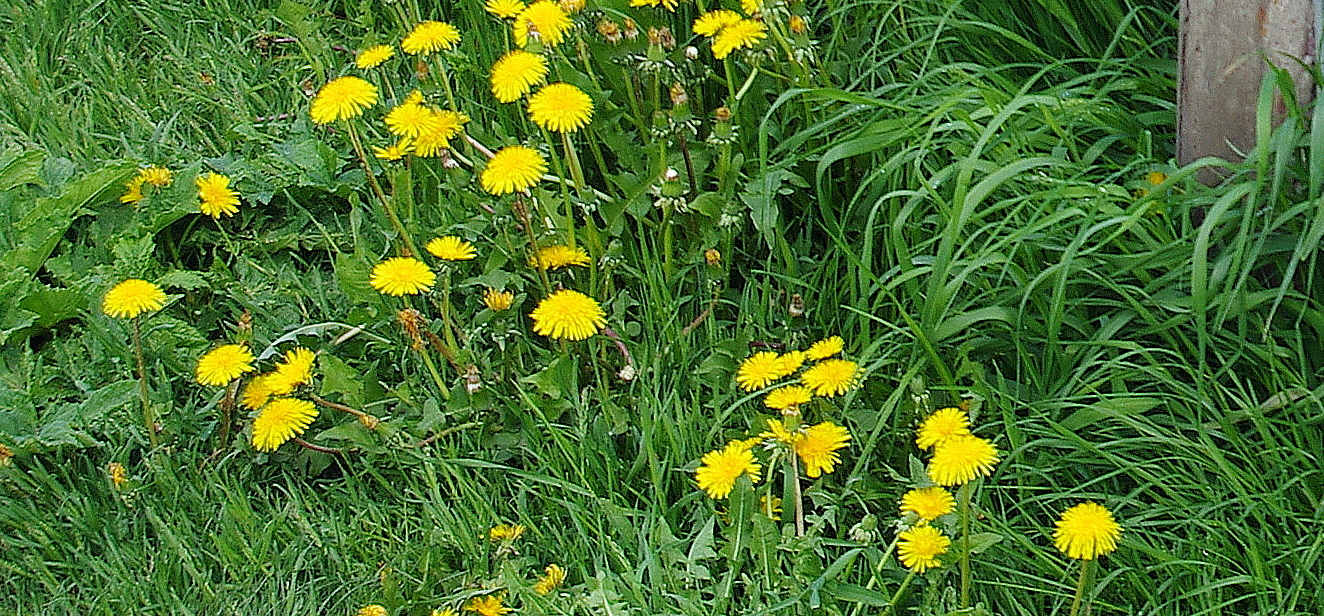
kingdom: Plantae
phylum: Tracheophyta
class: Magnoliopsida
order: Asterales
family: Asteraceae
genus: Taraxacum
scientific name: Taraxacum officinale
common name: Common dandelion
